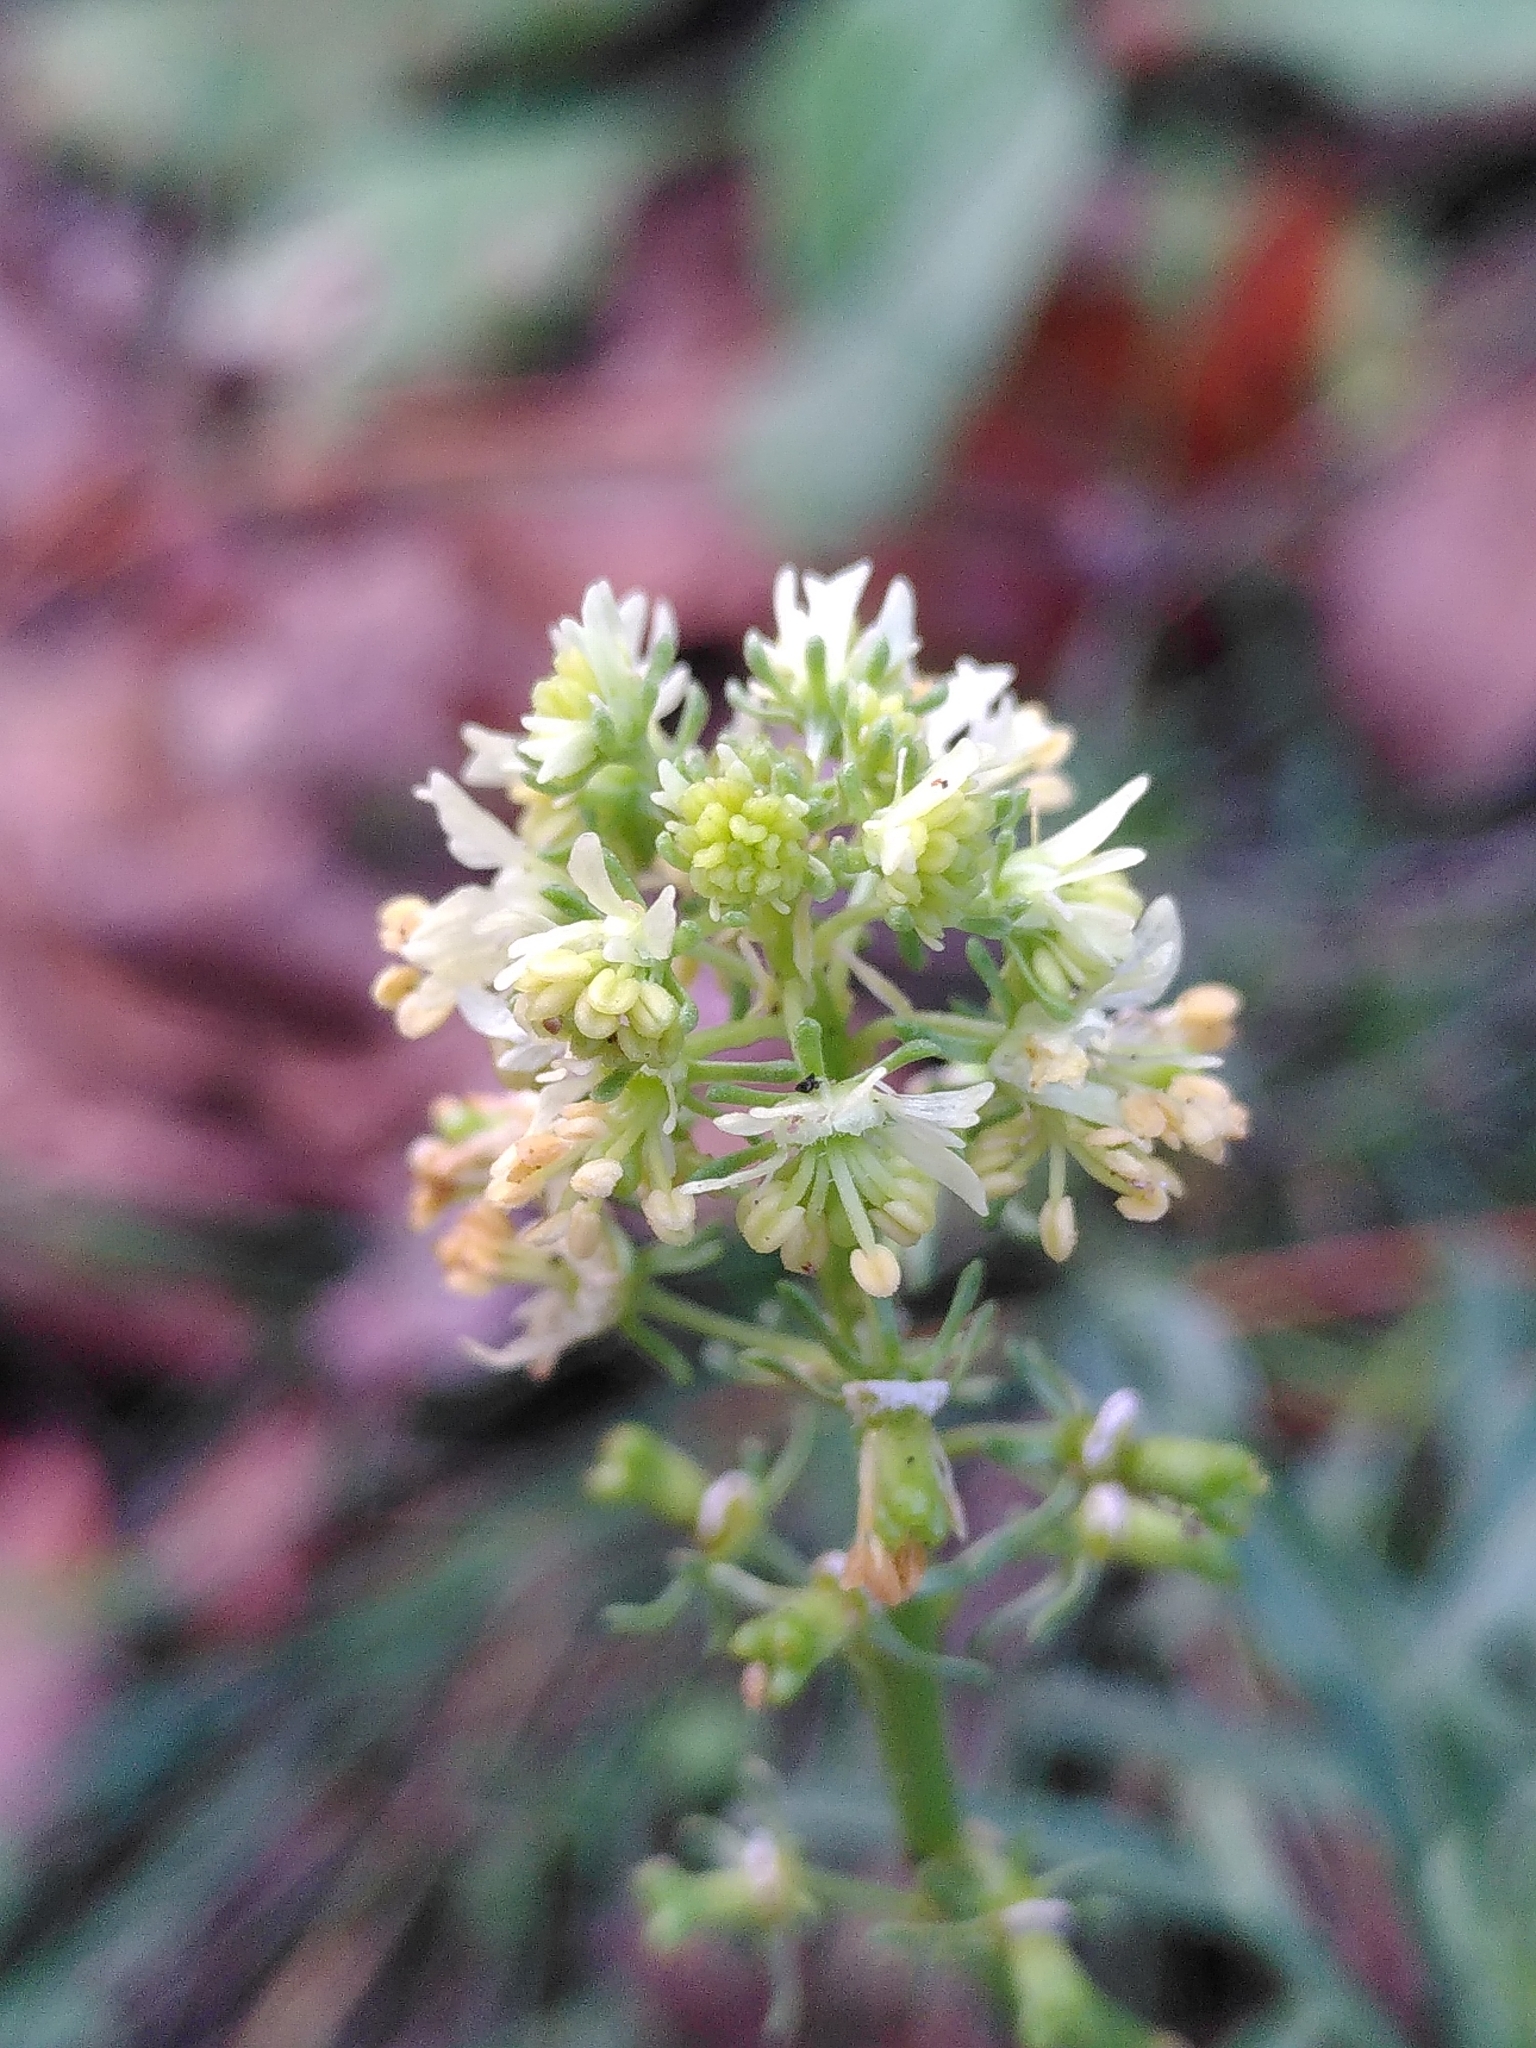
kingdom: Plantae
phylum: Tracheophyta
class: Magnoliopsida
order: Brassicales
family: Resedaceae
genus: Reseda
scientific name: Reseda jacquinii
